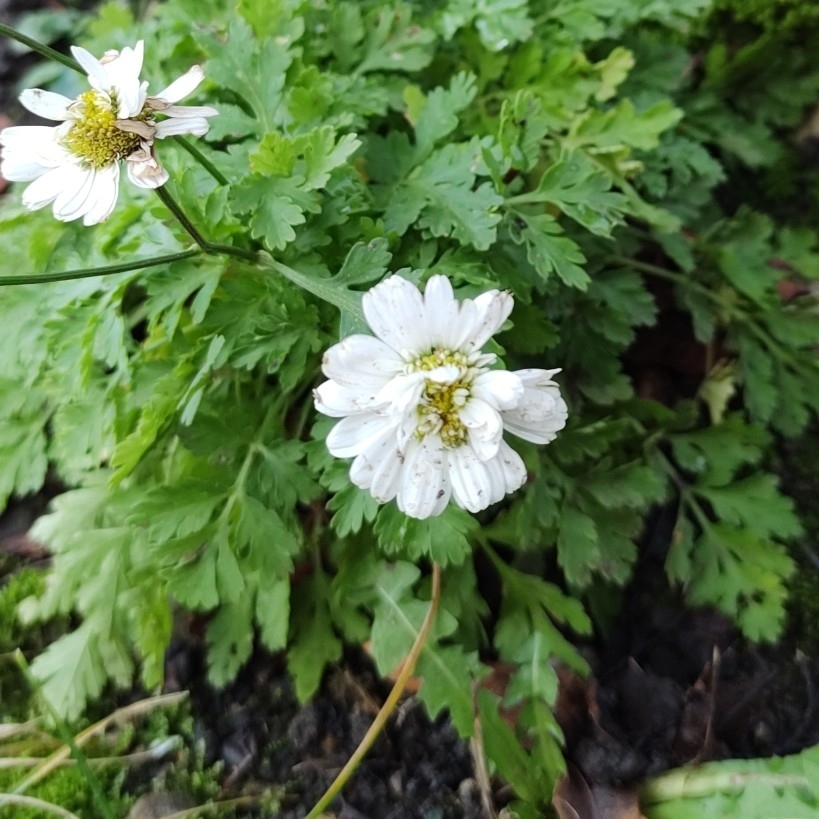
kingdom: Plantae
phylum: Tracheophyta
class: Magnoliopsida
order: Asterales
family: Asteraceae
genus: Tanacetum
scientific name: Tanacetum parthenium
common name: Feverfew
